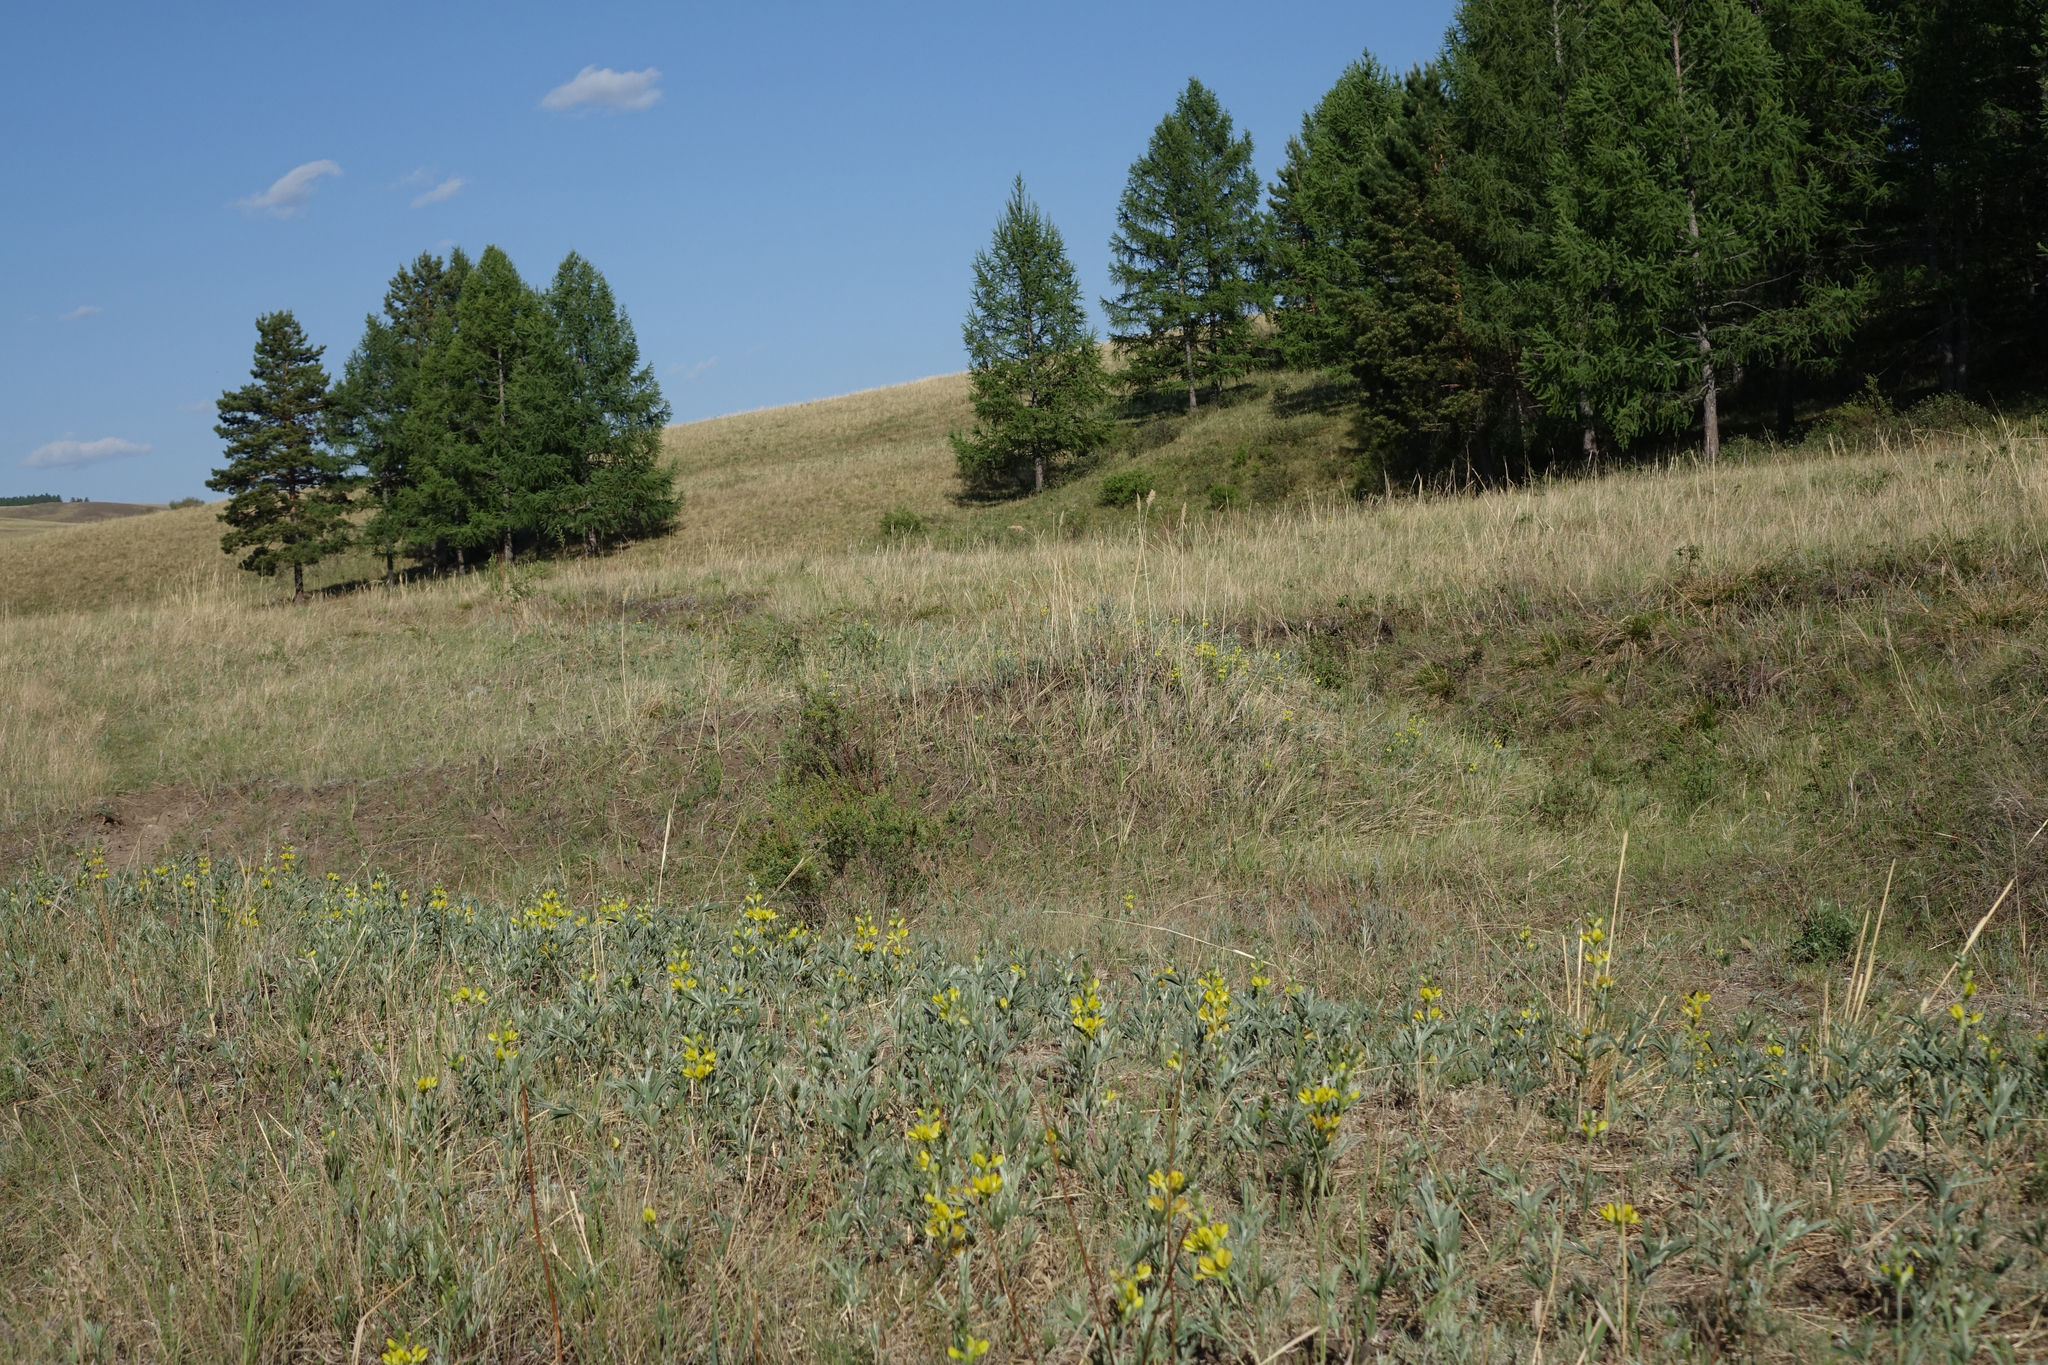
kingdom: Plantae
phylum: Tracheophyta
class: Pinopsida
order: Pinales
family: Pinaceae
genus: Larix
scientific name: Larix sibirica
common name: Siberian larch
